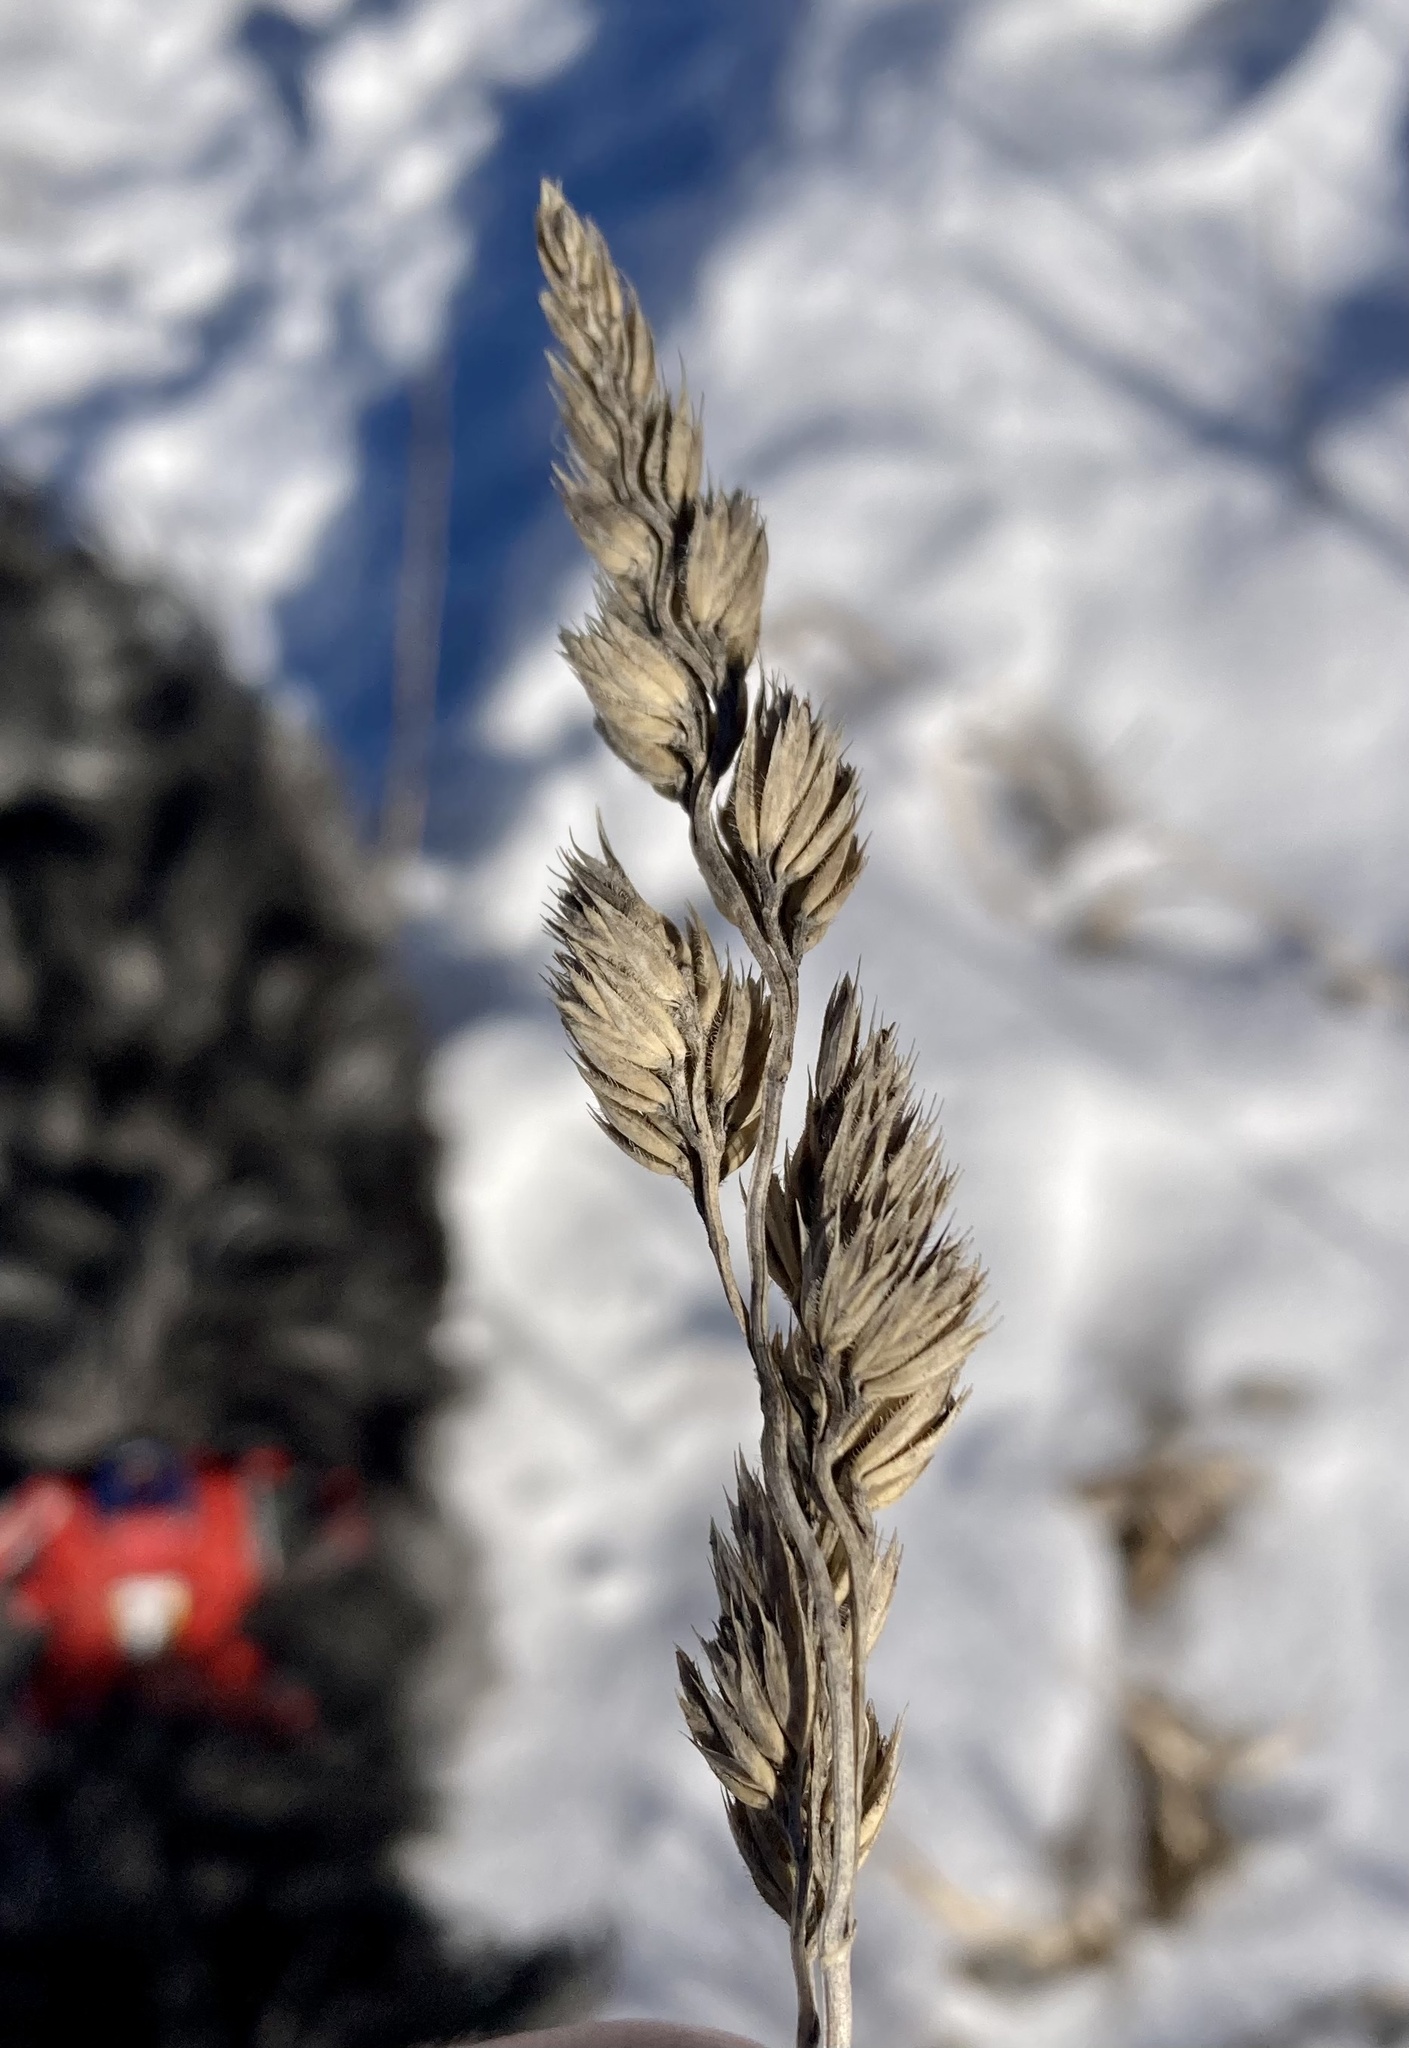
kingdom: Plantae
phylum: Tracheophyta
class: Liliopsida
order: Poales
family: Poaceae
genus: Dactylis
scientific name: Dactylis glomerata
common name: Orchardgrass
